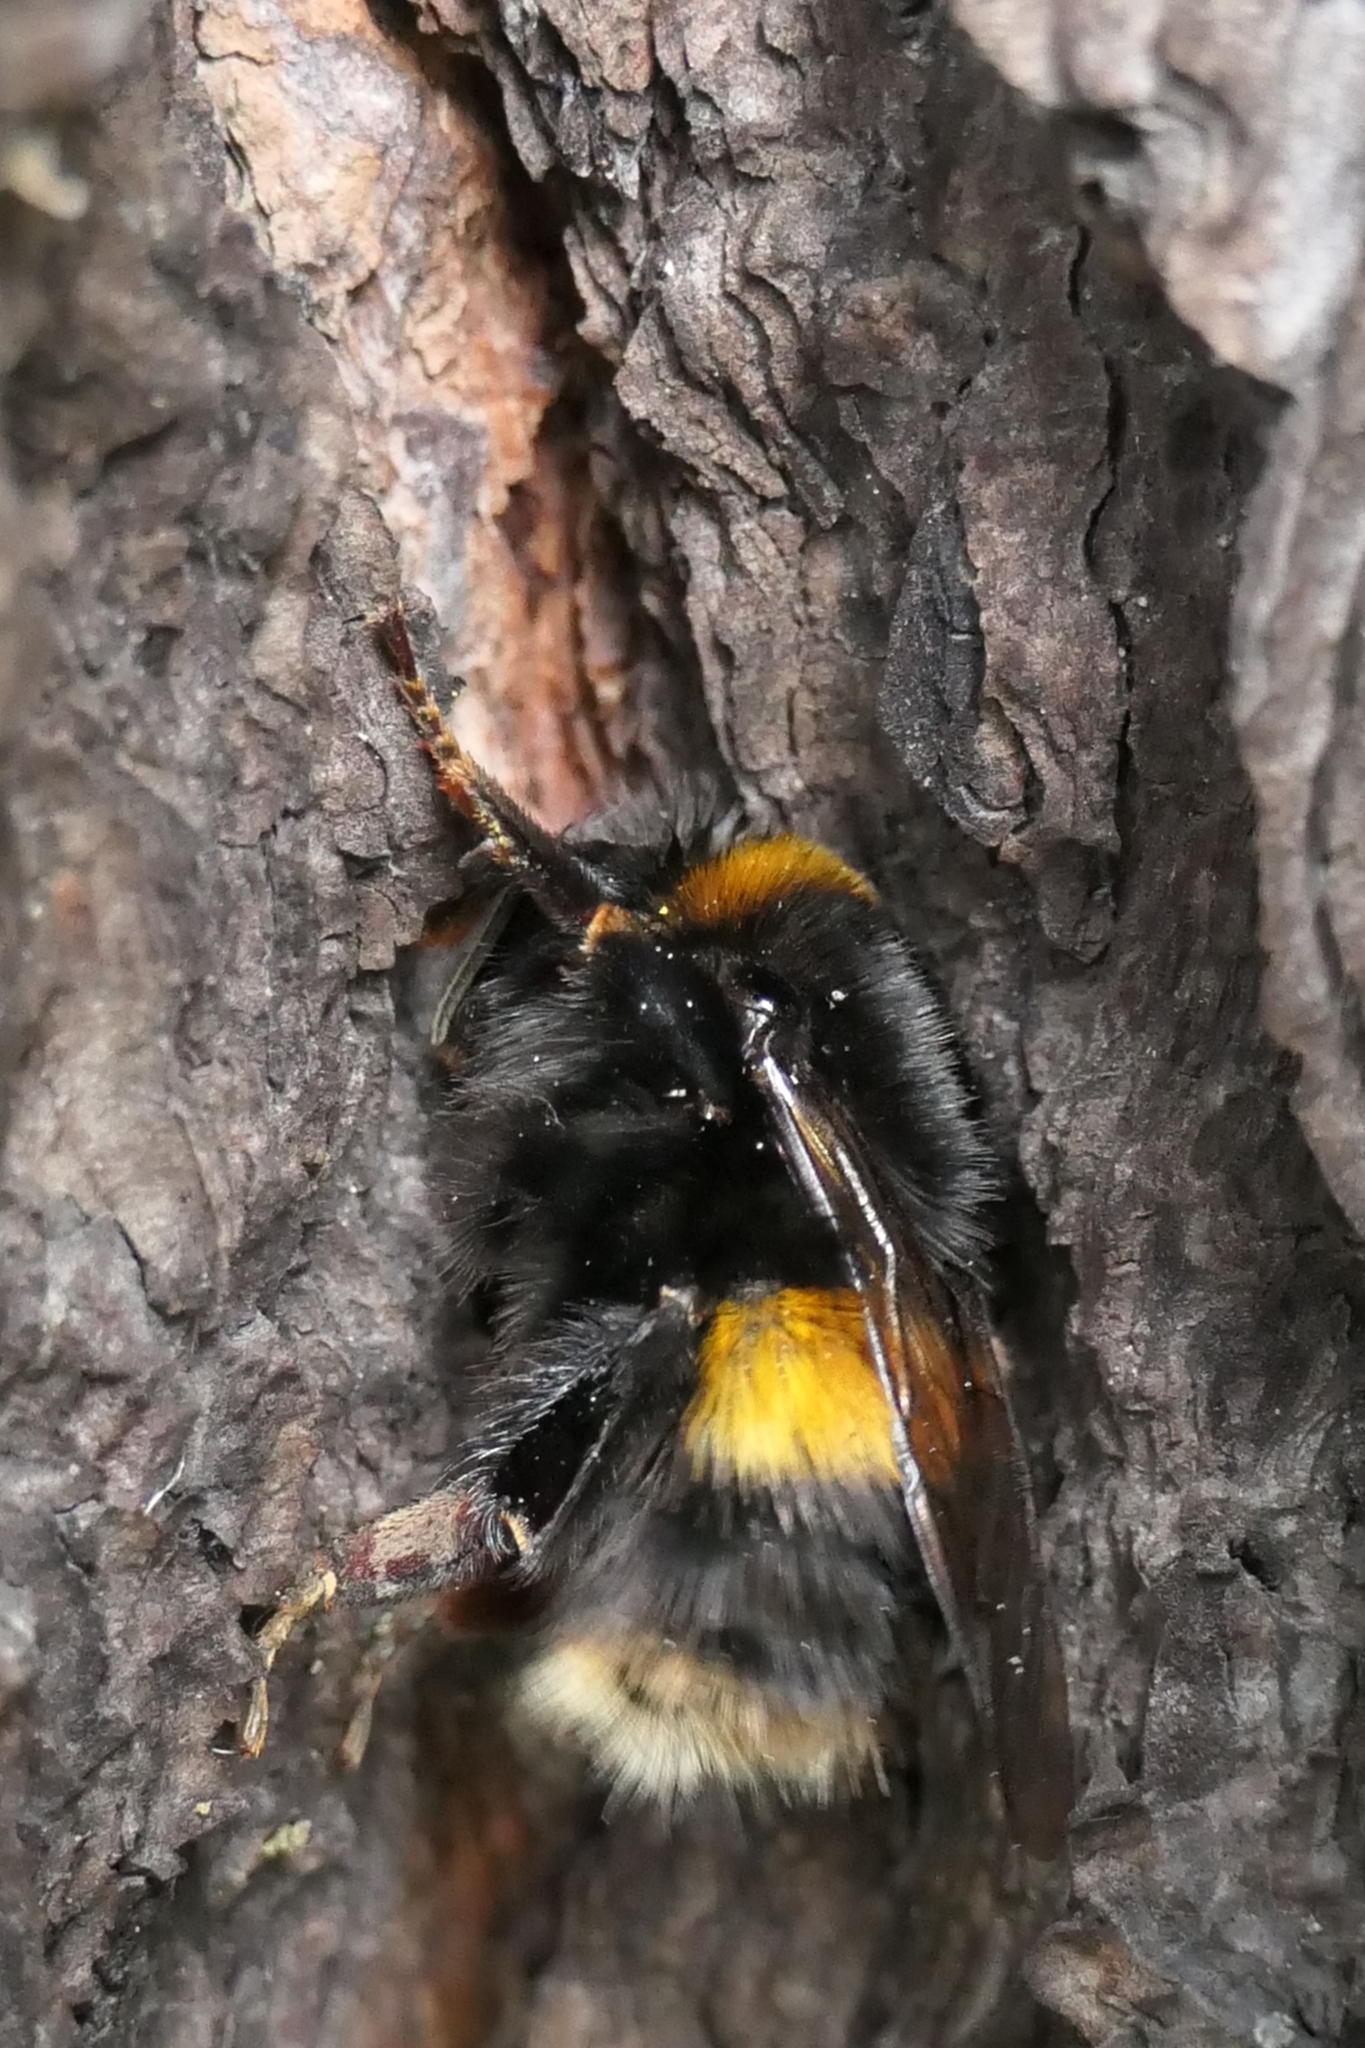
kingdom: Animalia
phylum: Arthropoda
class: Insecta
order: Hymenoptera
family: Apidae
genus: Bombus
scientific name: Bombus terrestris
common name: Buff-tailed bumblebee
